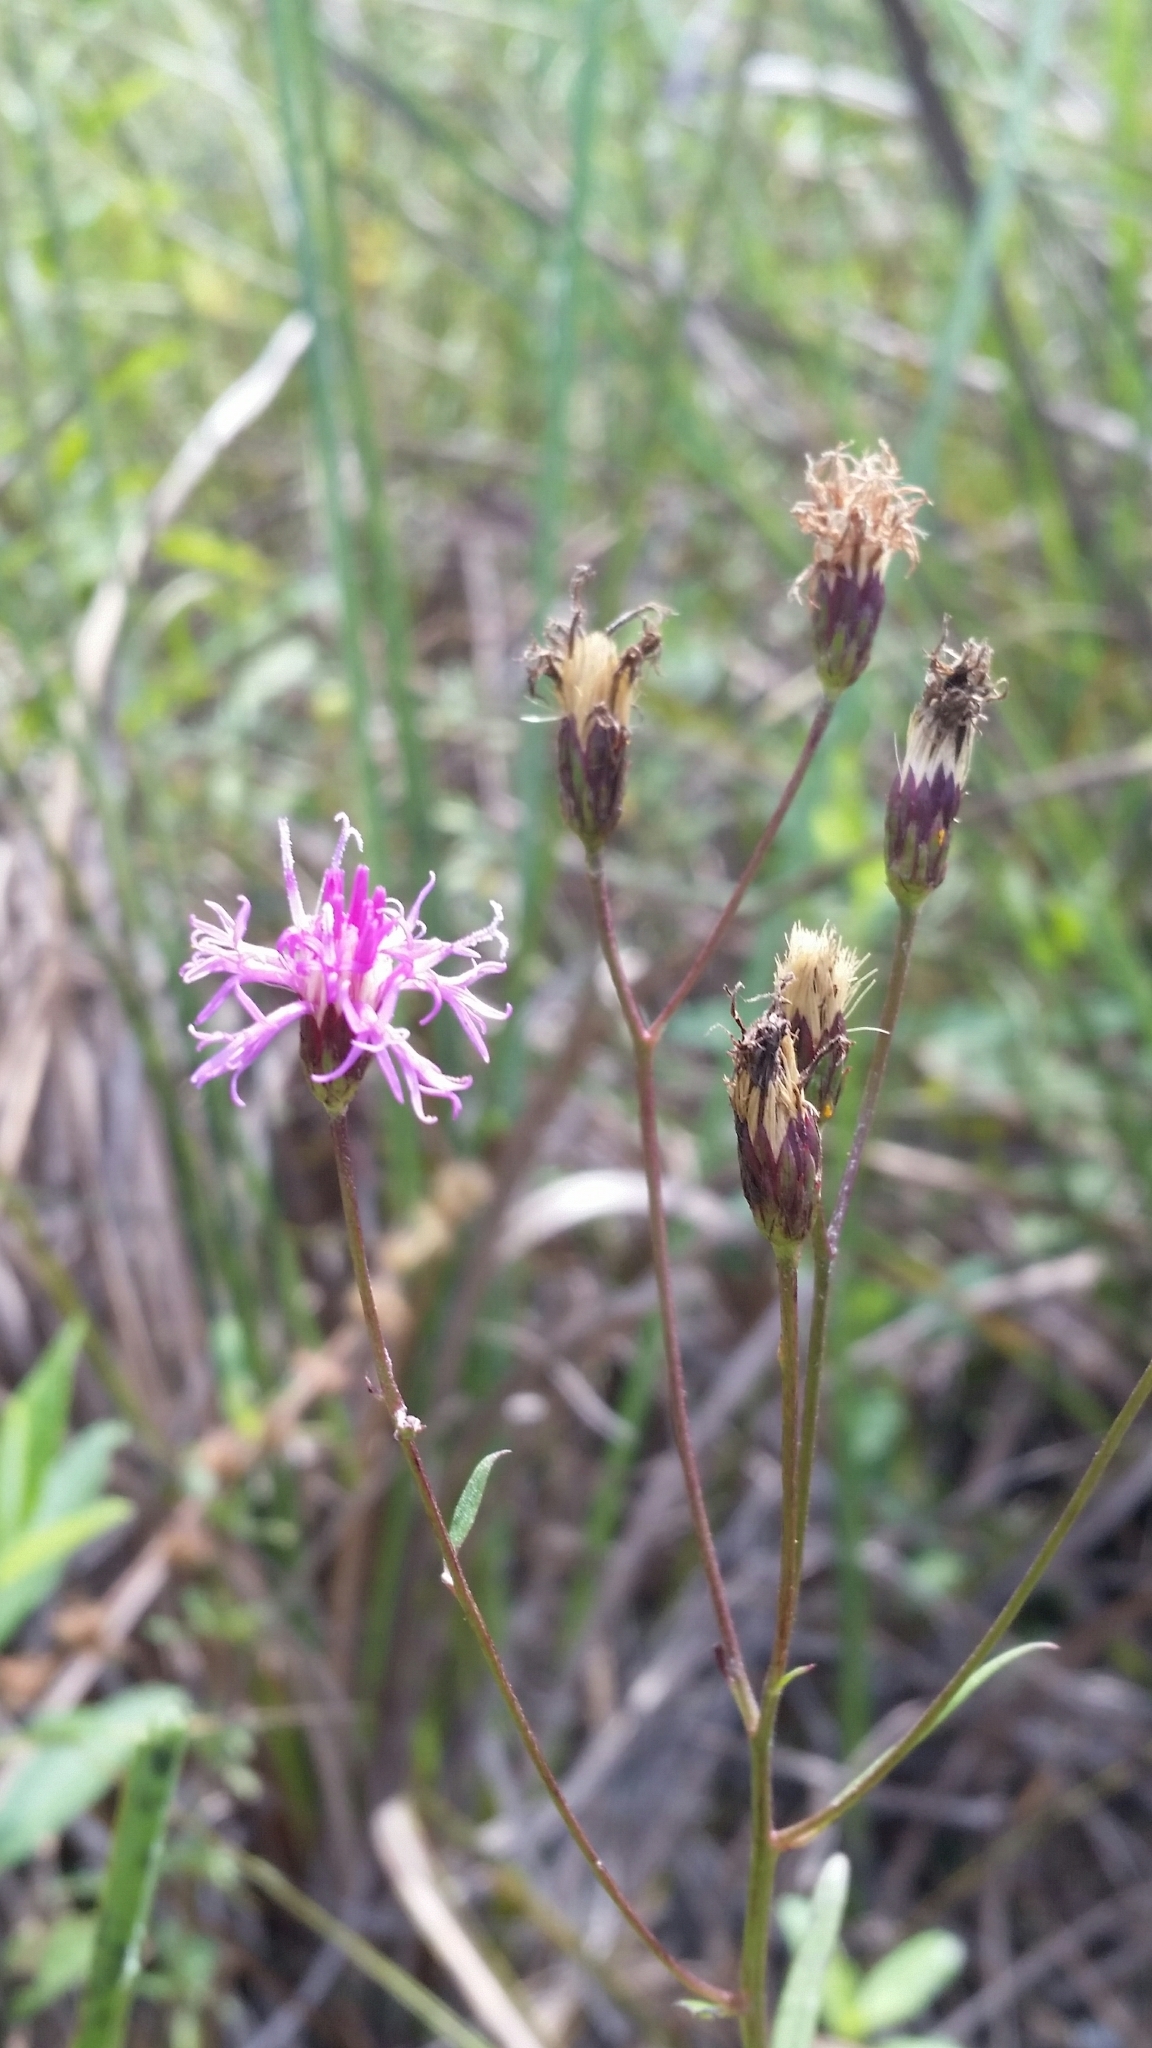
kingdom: Plantae
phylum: Tracheophyta
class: Magnoliopsida
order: Asterales
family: Asteraceae
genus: Vernonia
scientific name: Vernonia blodgettii
